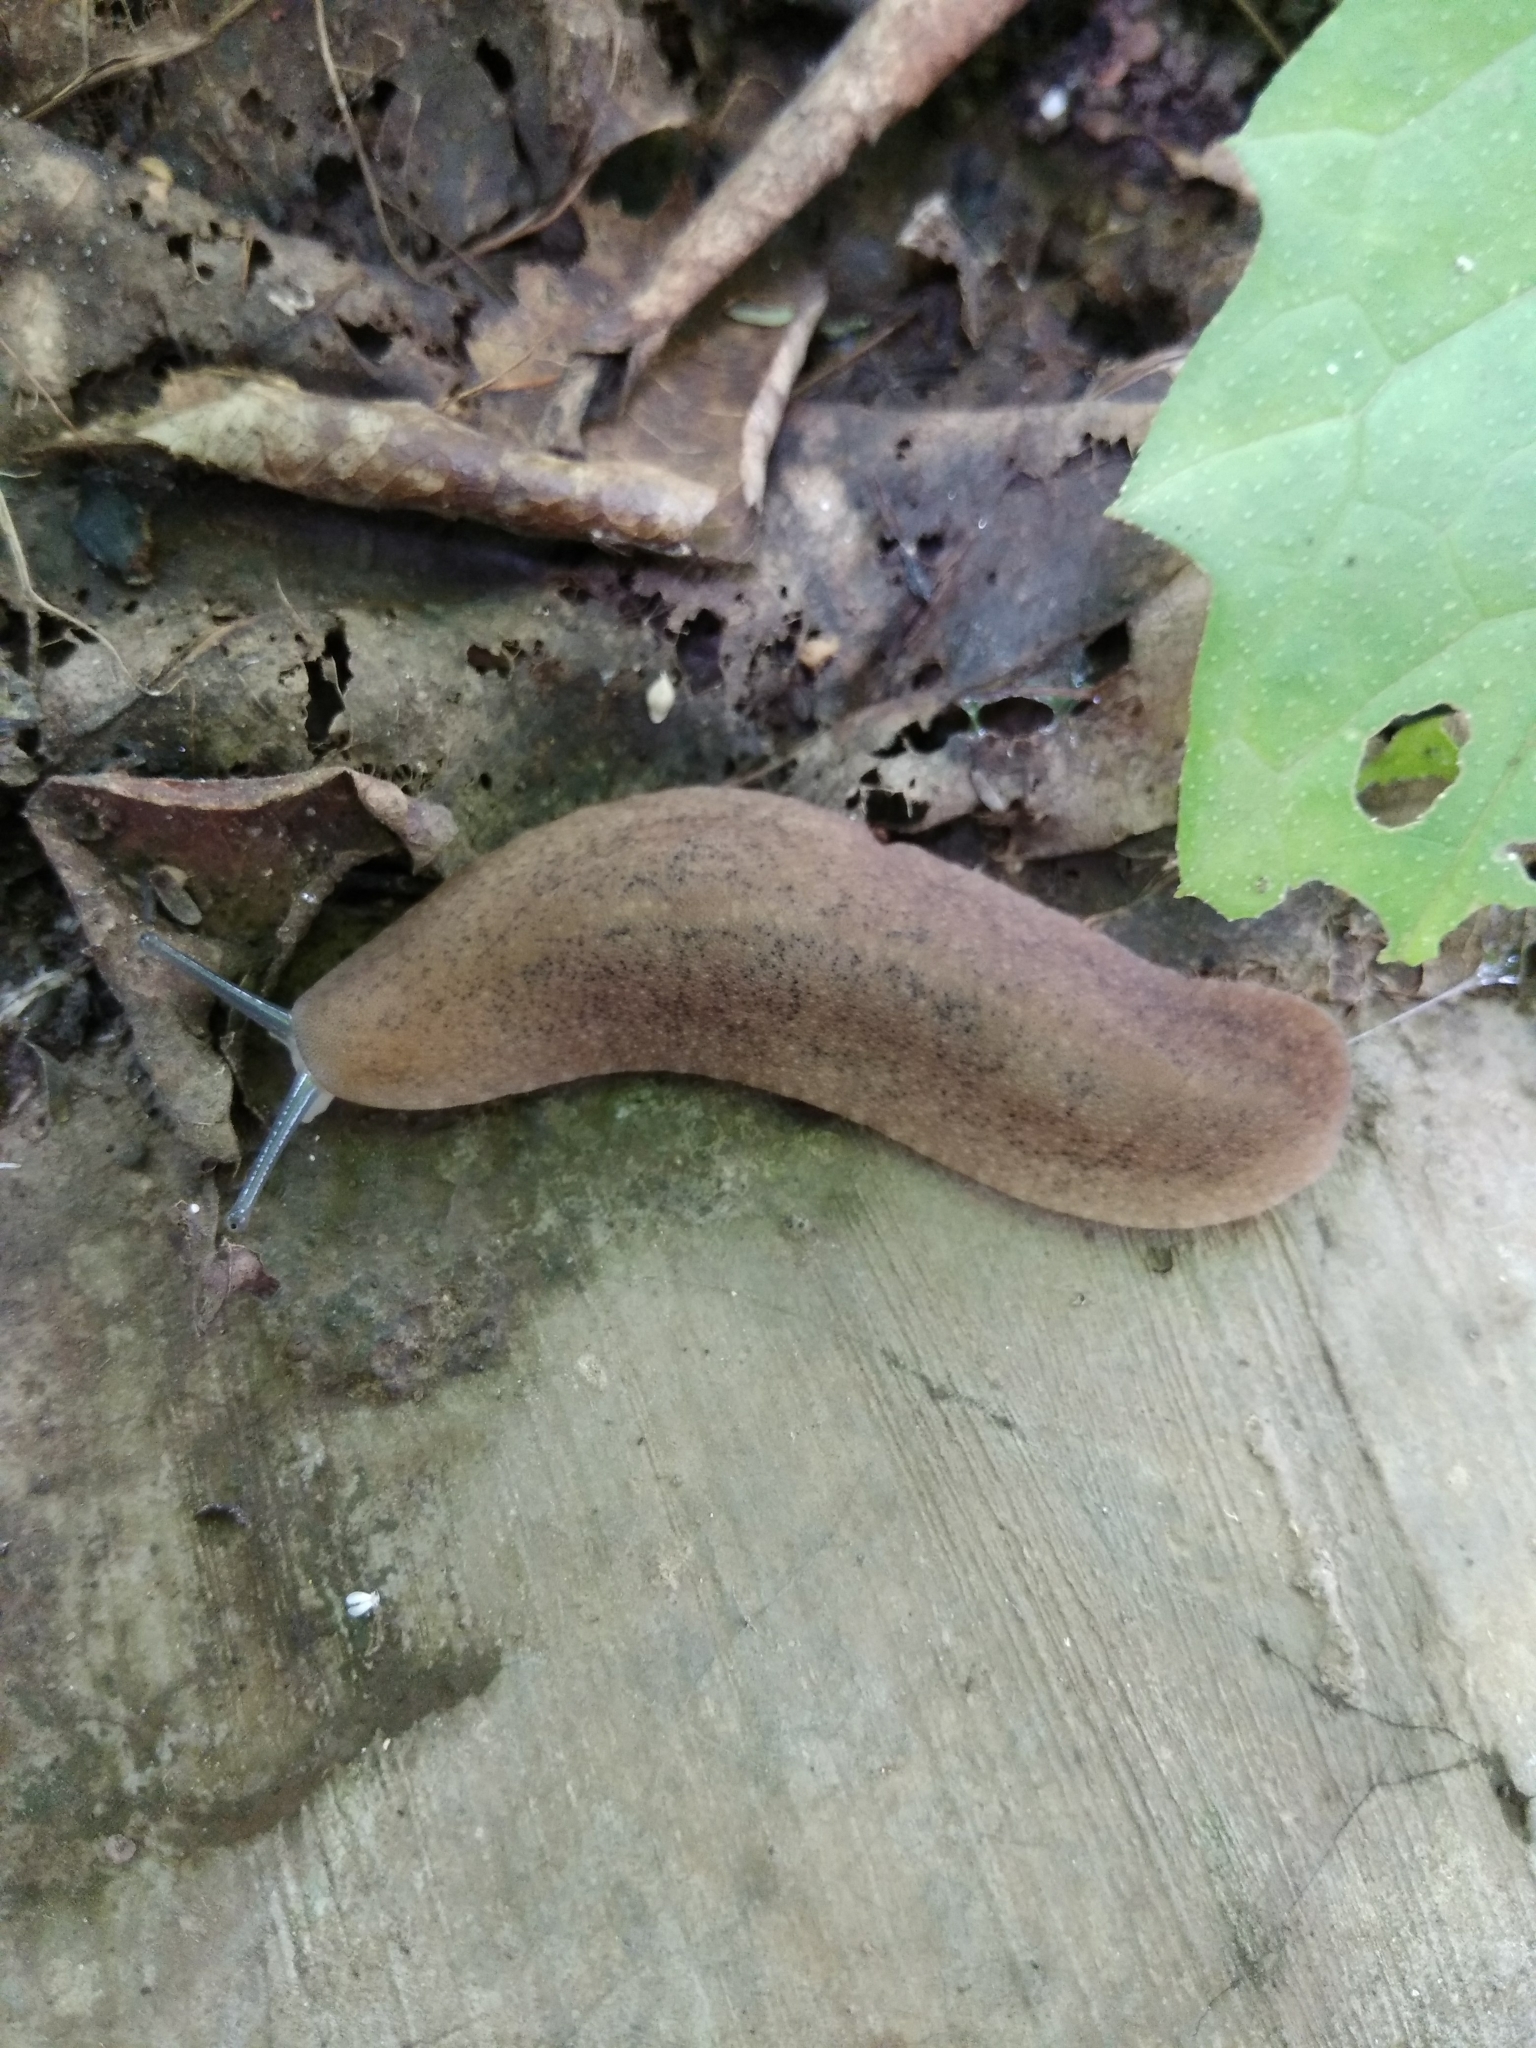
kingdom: Animalia
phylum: Mollusca
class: Gastropoda
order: Systellommatophora
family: Veronicellidae
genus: Laevicaulis
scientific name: Laevicaulis alte
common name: Tropical leatherleaf
